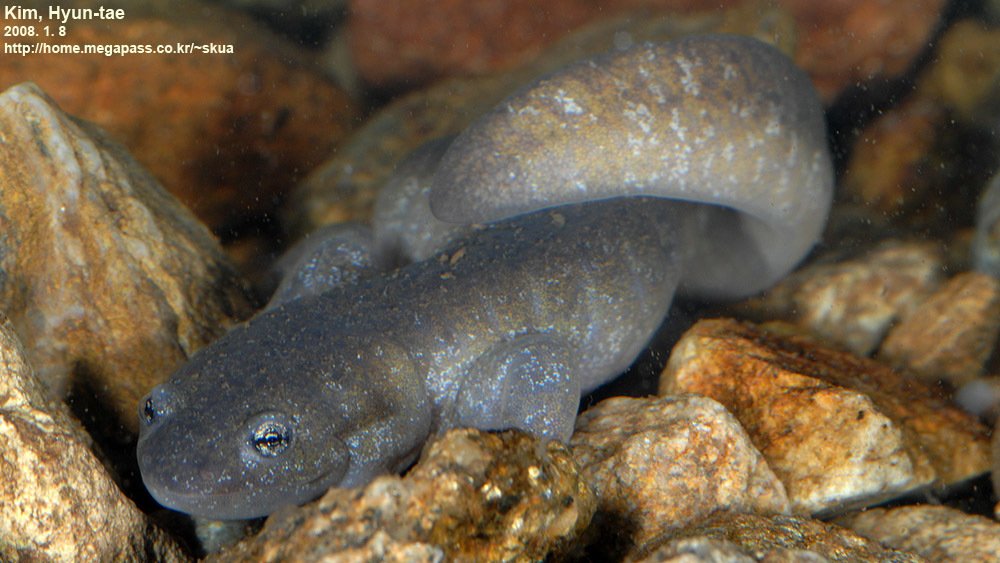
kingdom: Animalia
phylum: Chordata
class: Amphibia
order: Caudata
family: Hynobiidae
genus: Hynobius
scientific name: Hynobius leechii
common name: Gensan salamander
